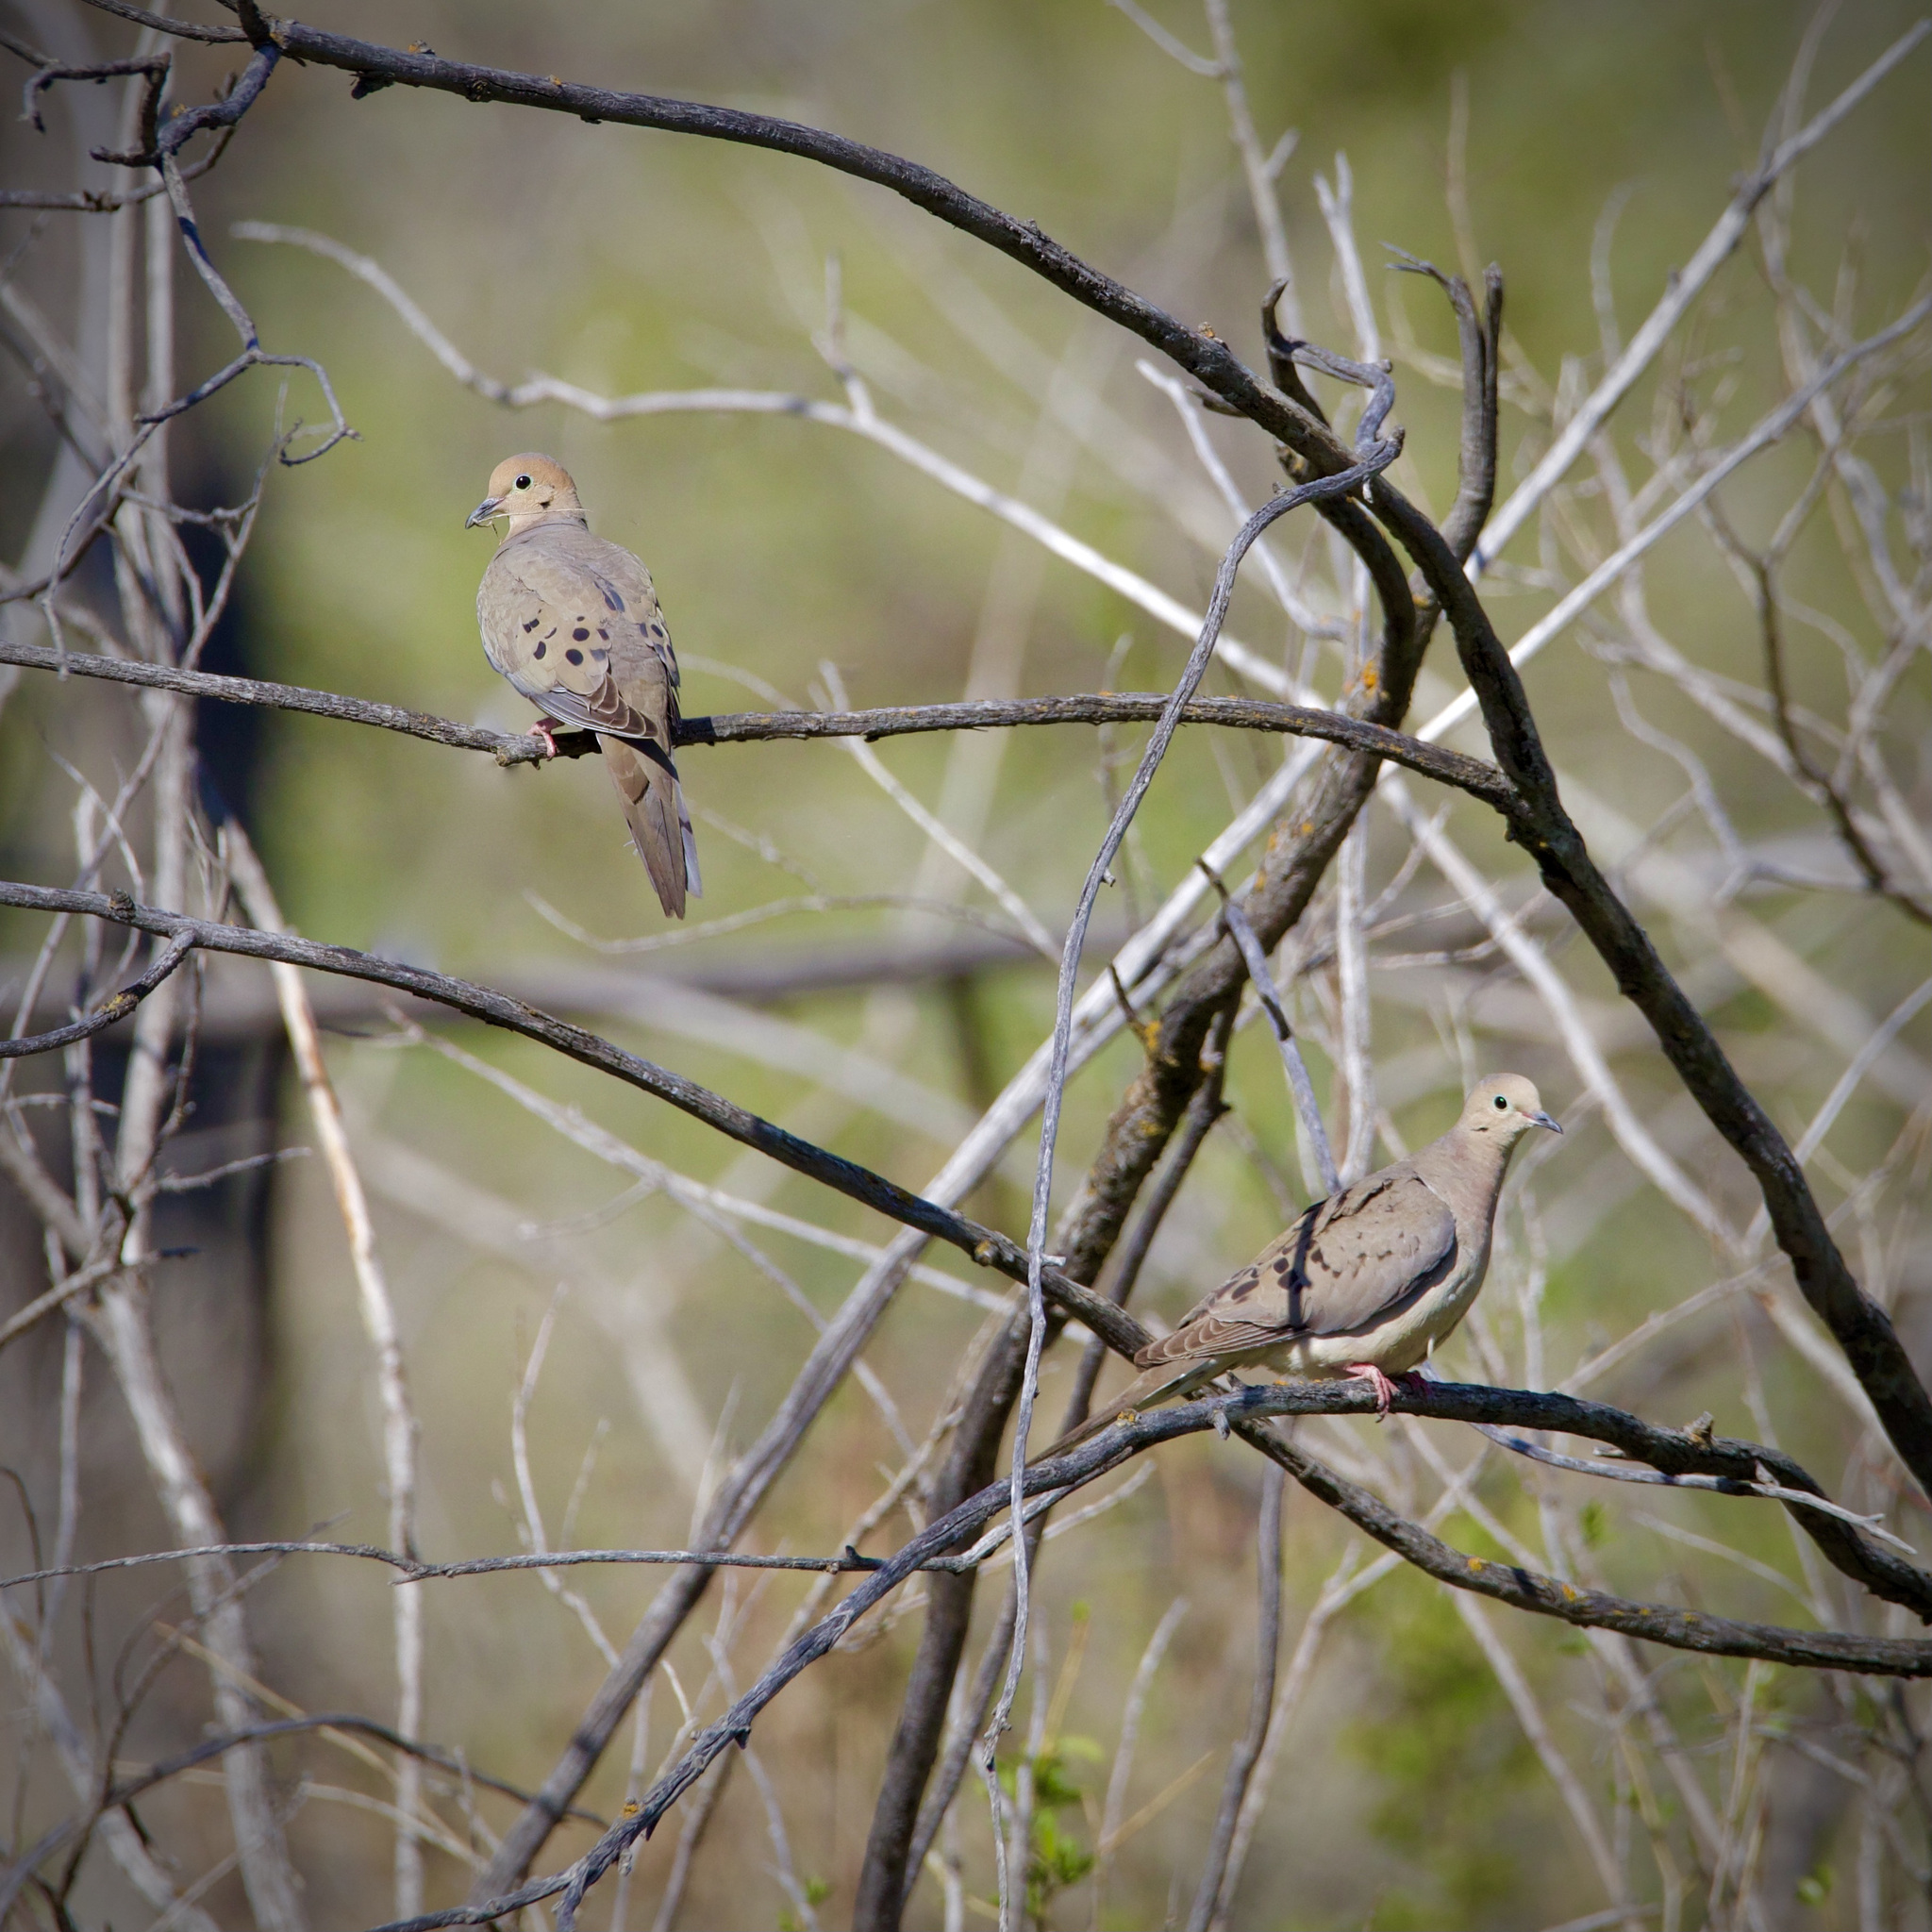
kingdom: Animalia
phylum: Chordata
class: Aves
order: Columbiformes
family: Columbidae
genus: Zenaida
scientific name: Zenaida macroura
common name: Mourning dove
